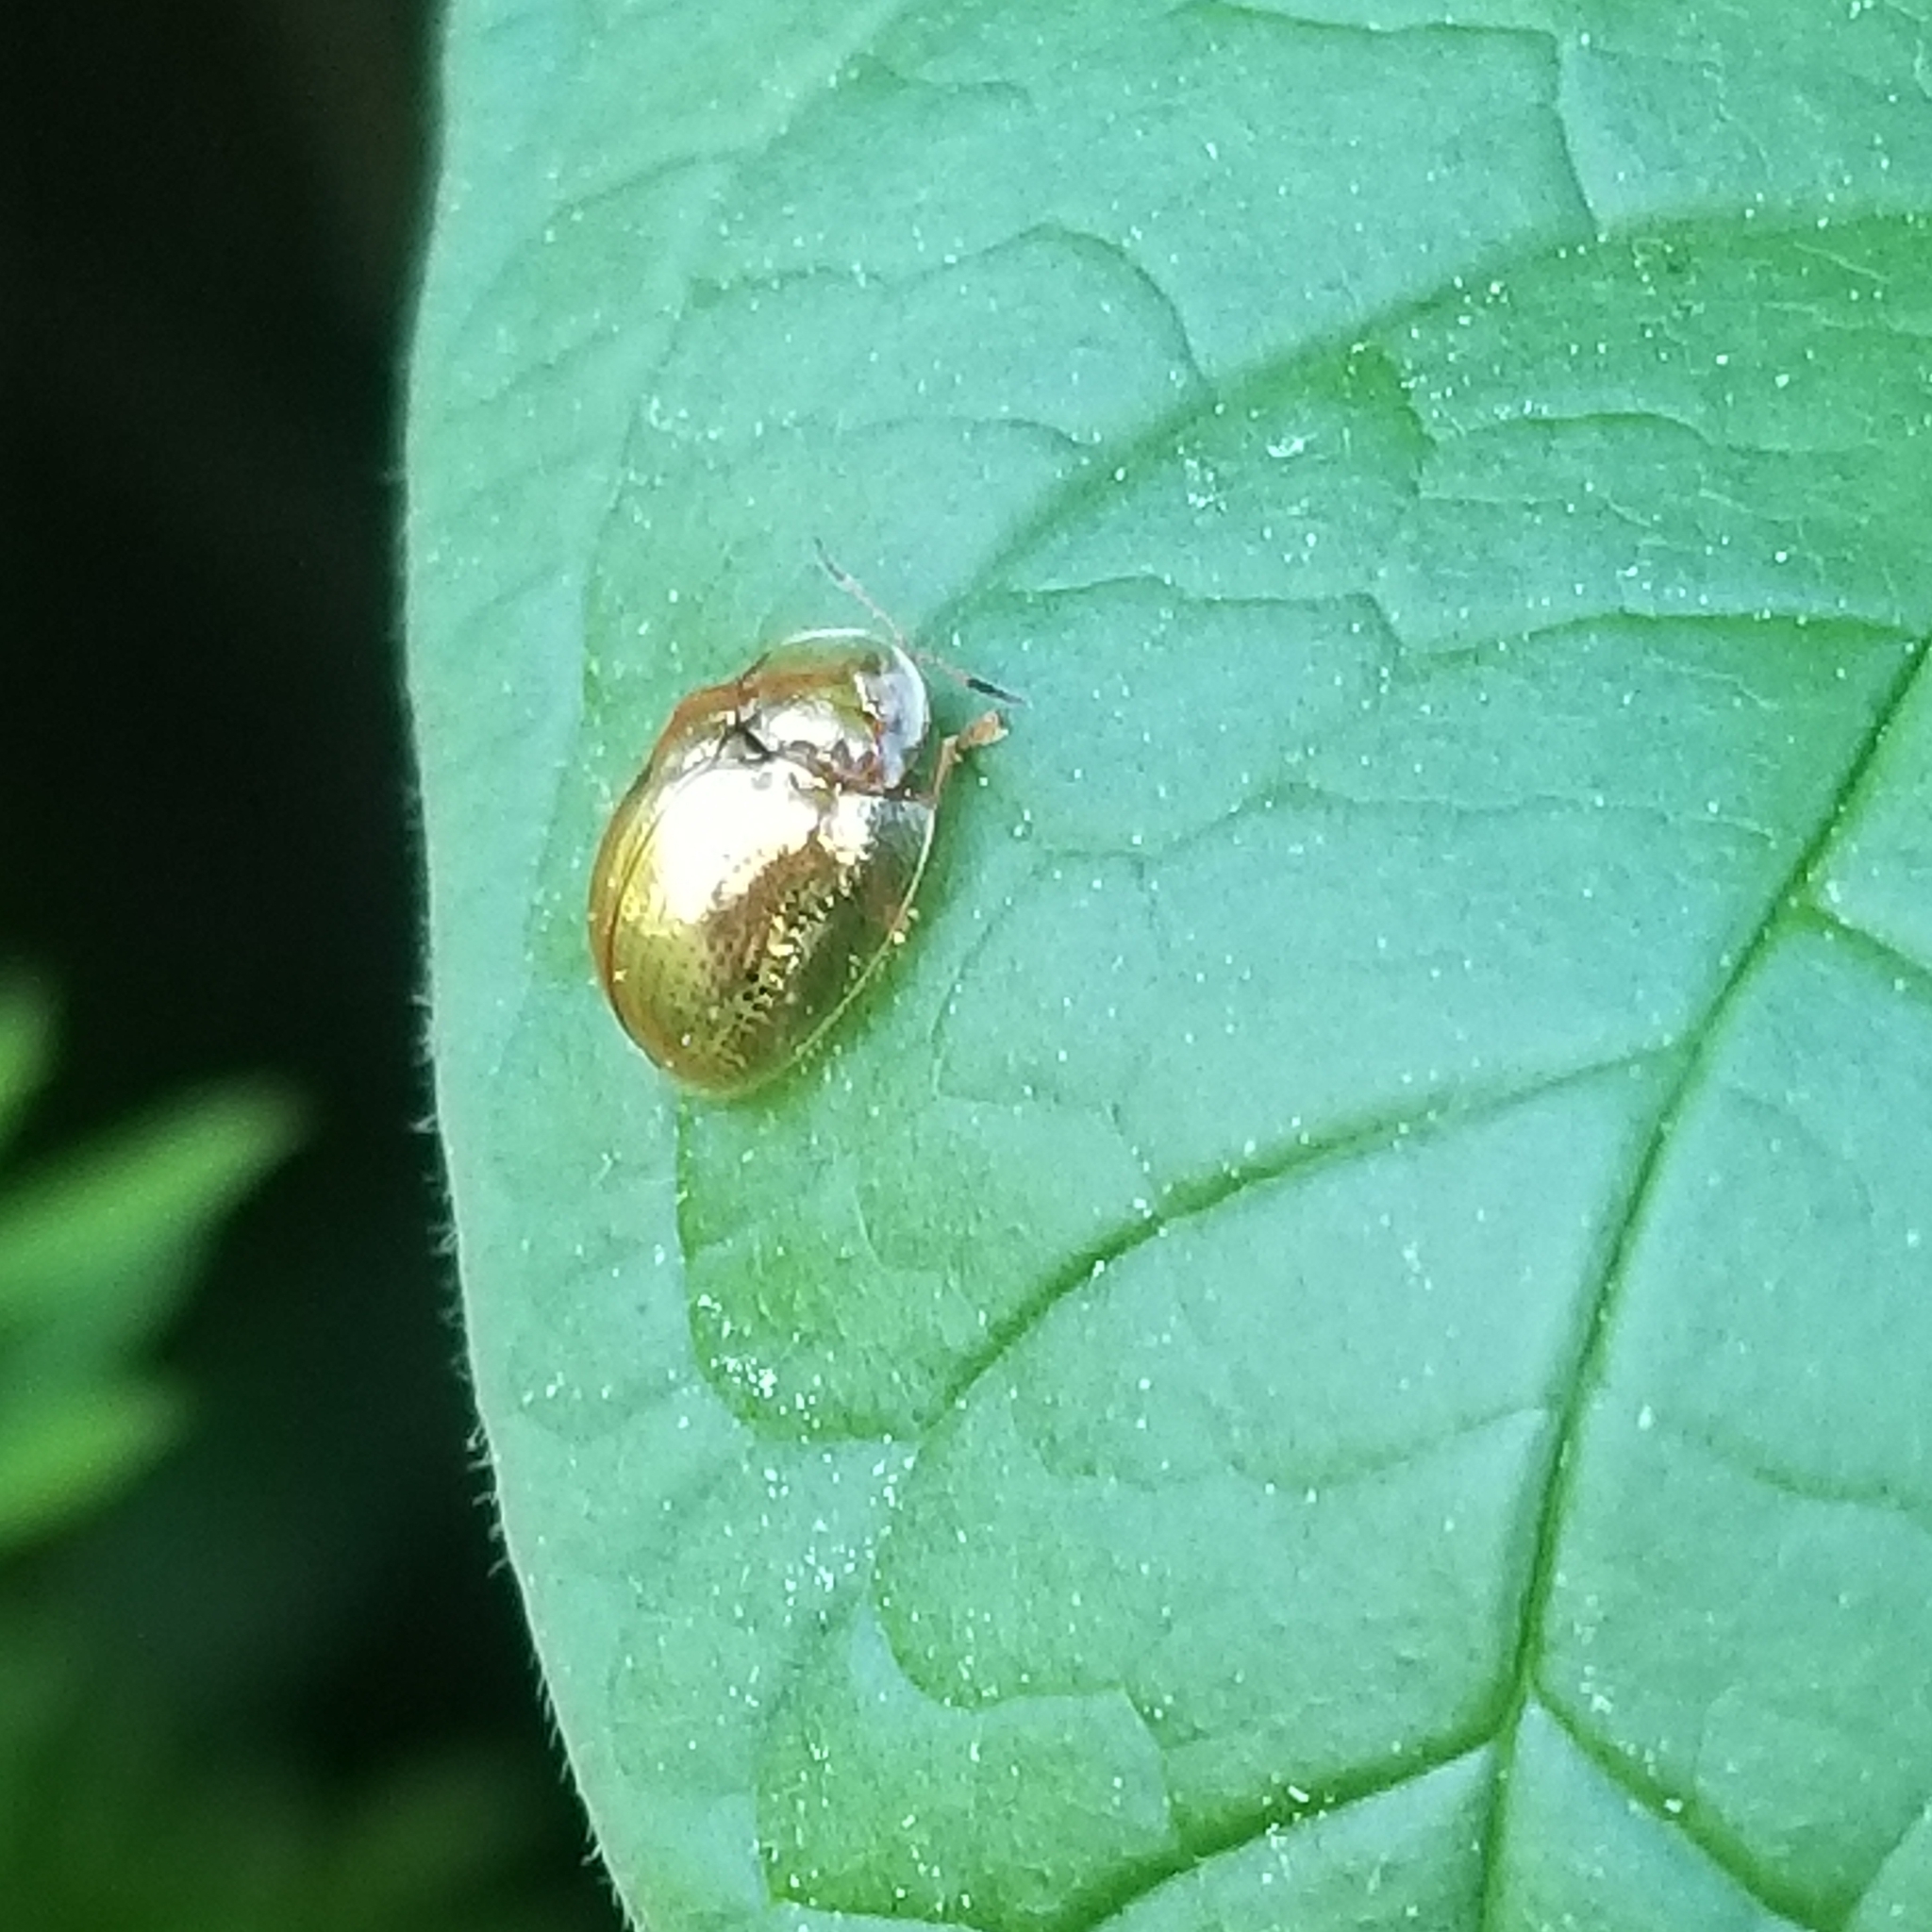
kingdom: Animalia
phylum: Arthropoda
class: Insecta
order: Coleoptera
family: Chrysomelidae
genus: Charidotella
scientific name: Charidotella sexpunctata
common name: Golden tortoise beetle
